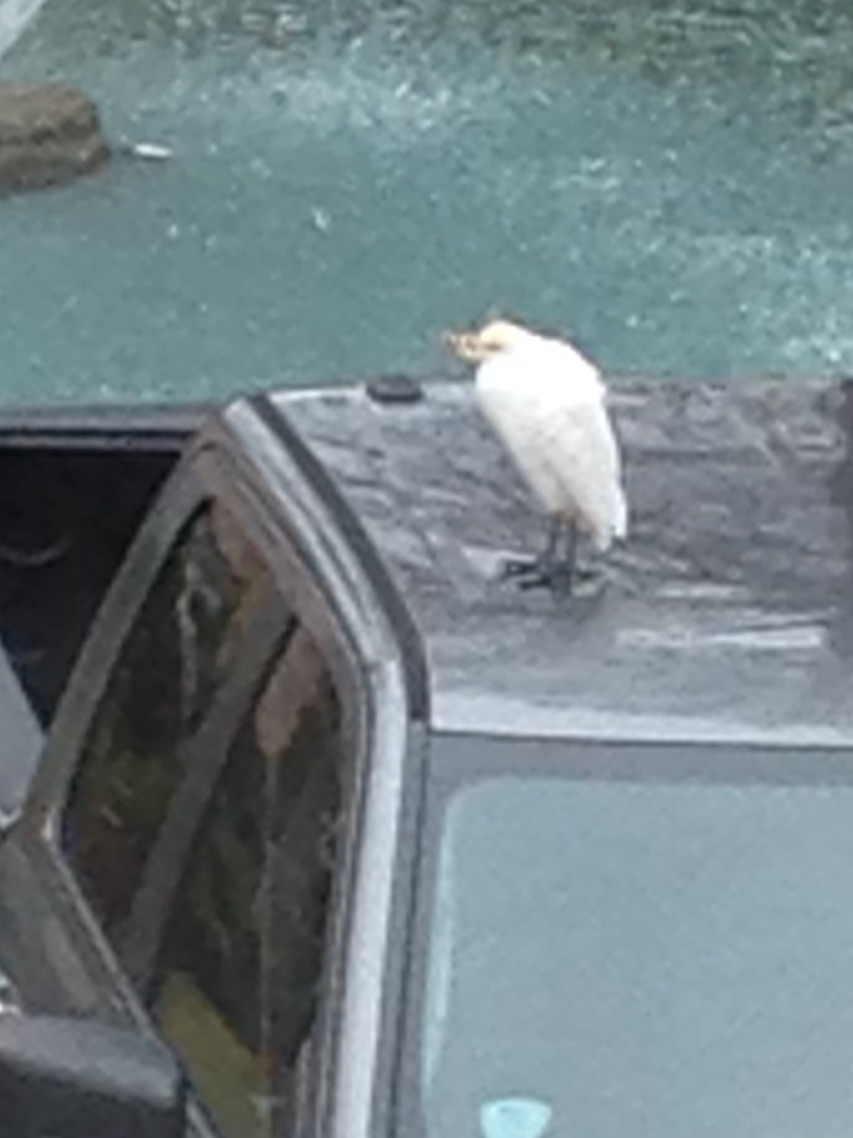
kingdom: Animalia
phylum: Chordata
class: Aves
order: Pelecaniformes
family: Ardeidae
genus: Bubulcus
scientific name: Bubulcus ibis
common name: Cattle egret
